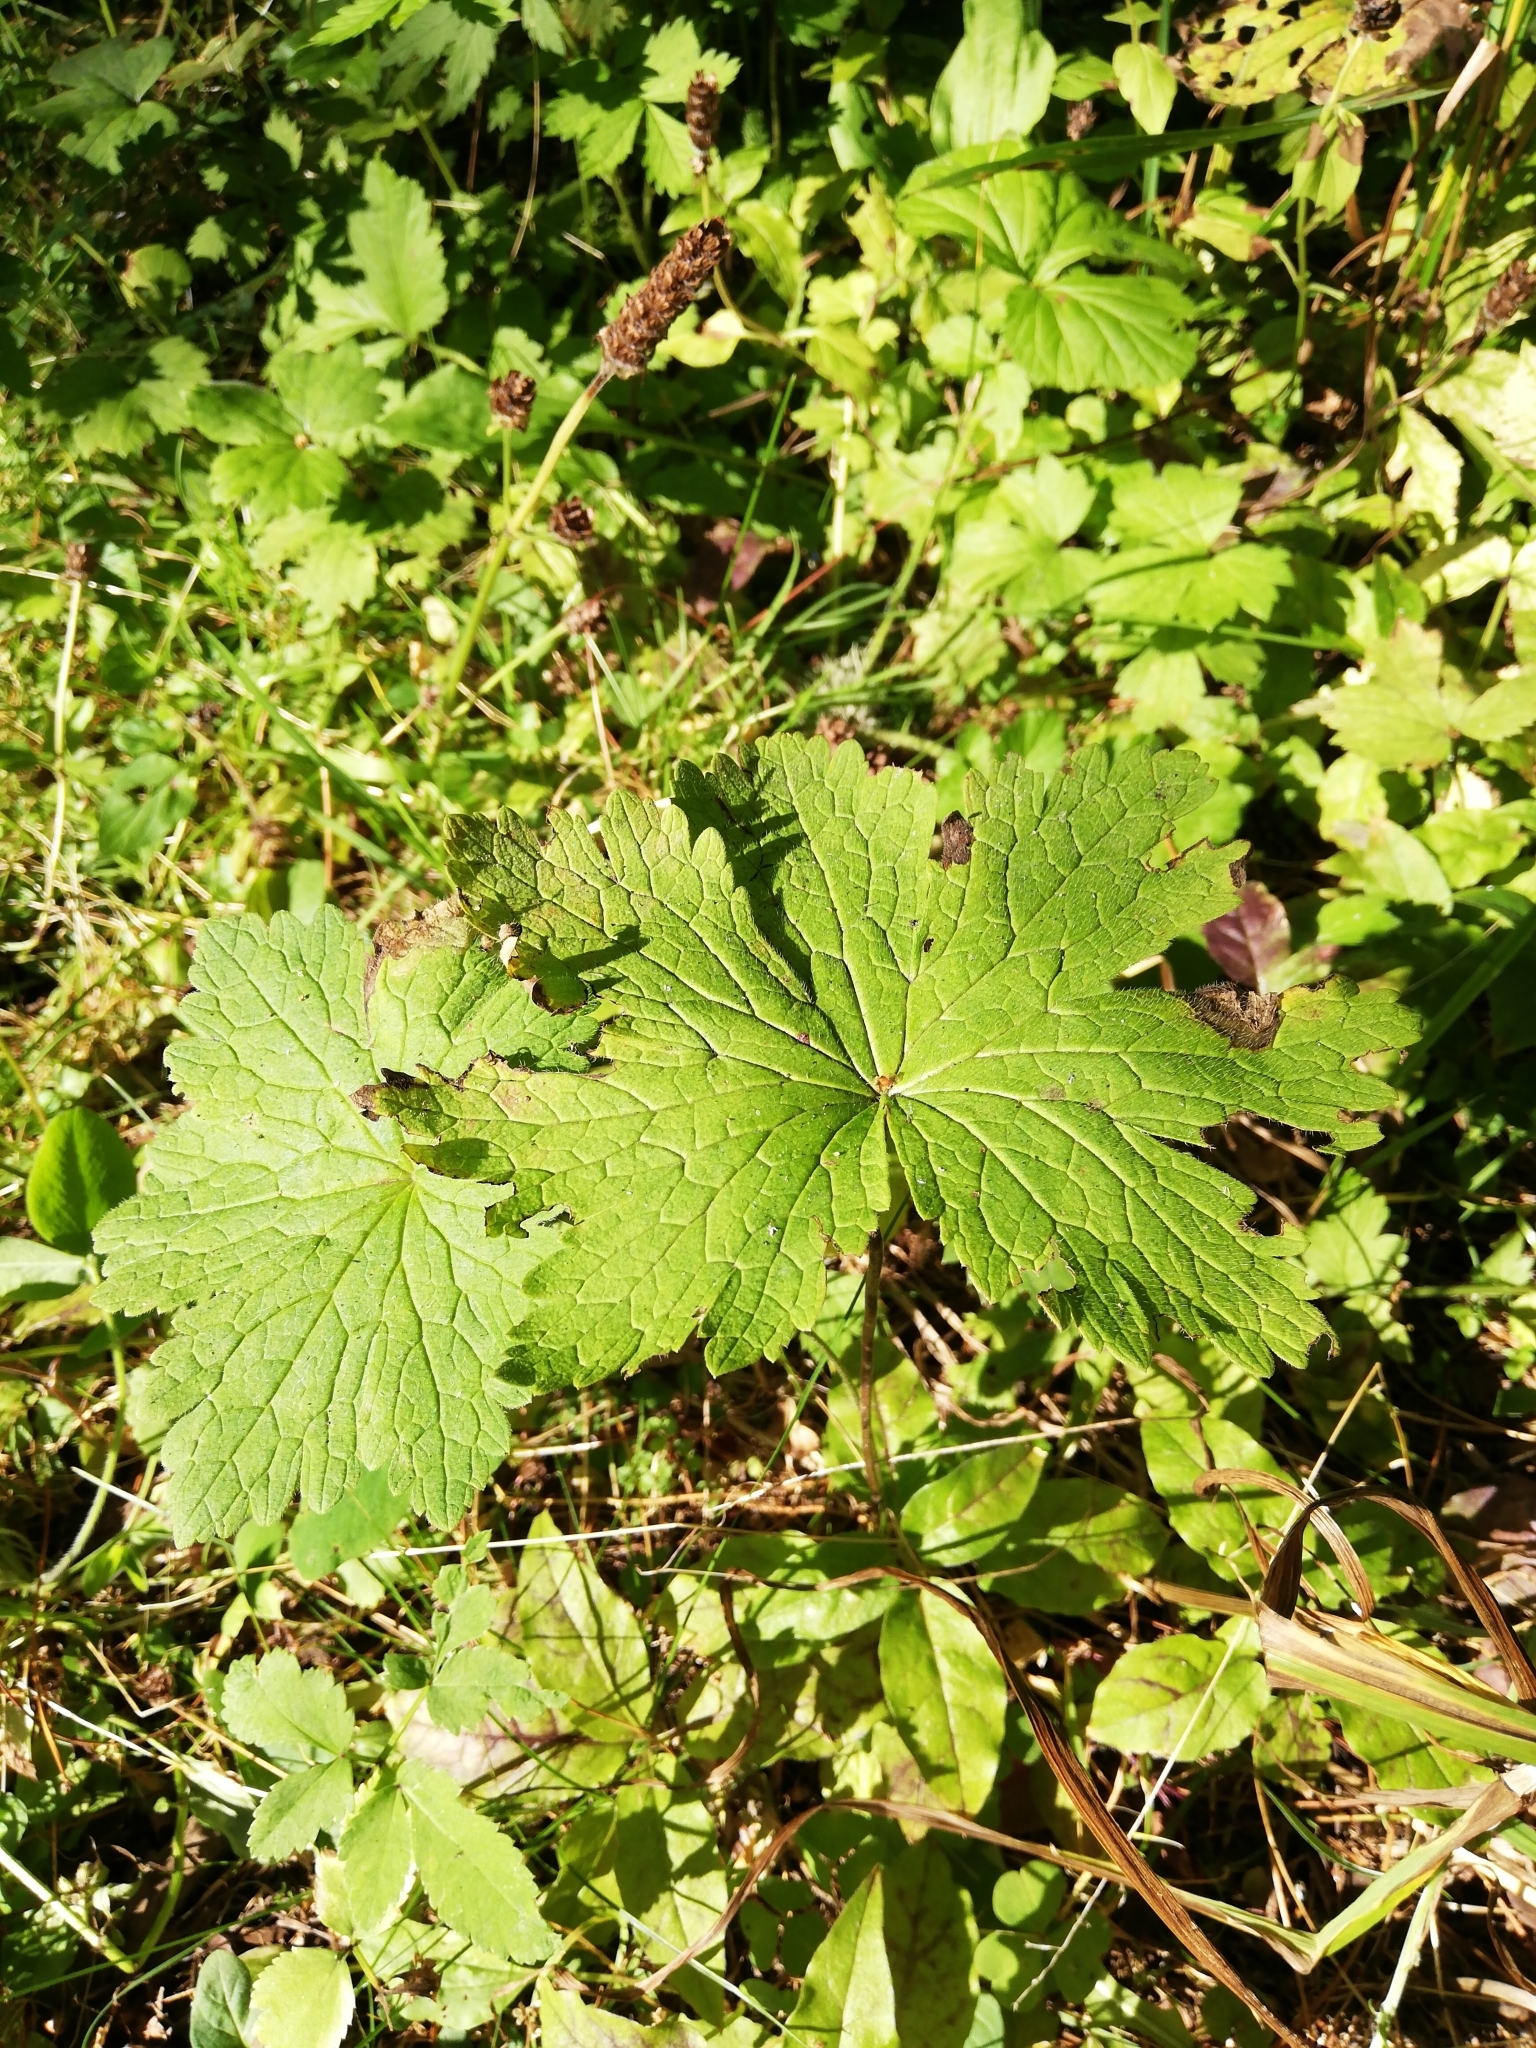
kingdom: Plantae
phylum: Tracheophyta
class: Magnoliopsida
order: Ranunculales
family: Ranunculaceae
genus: Aconitum
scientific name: Aconitum septentrionale
